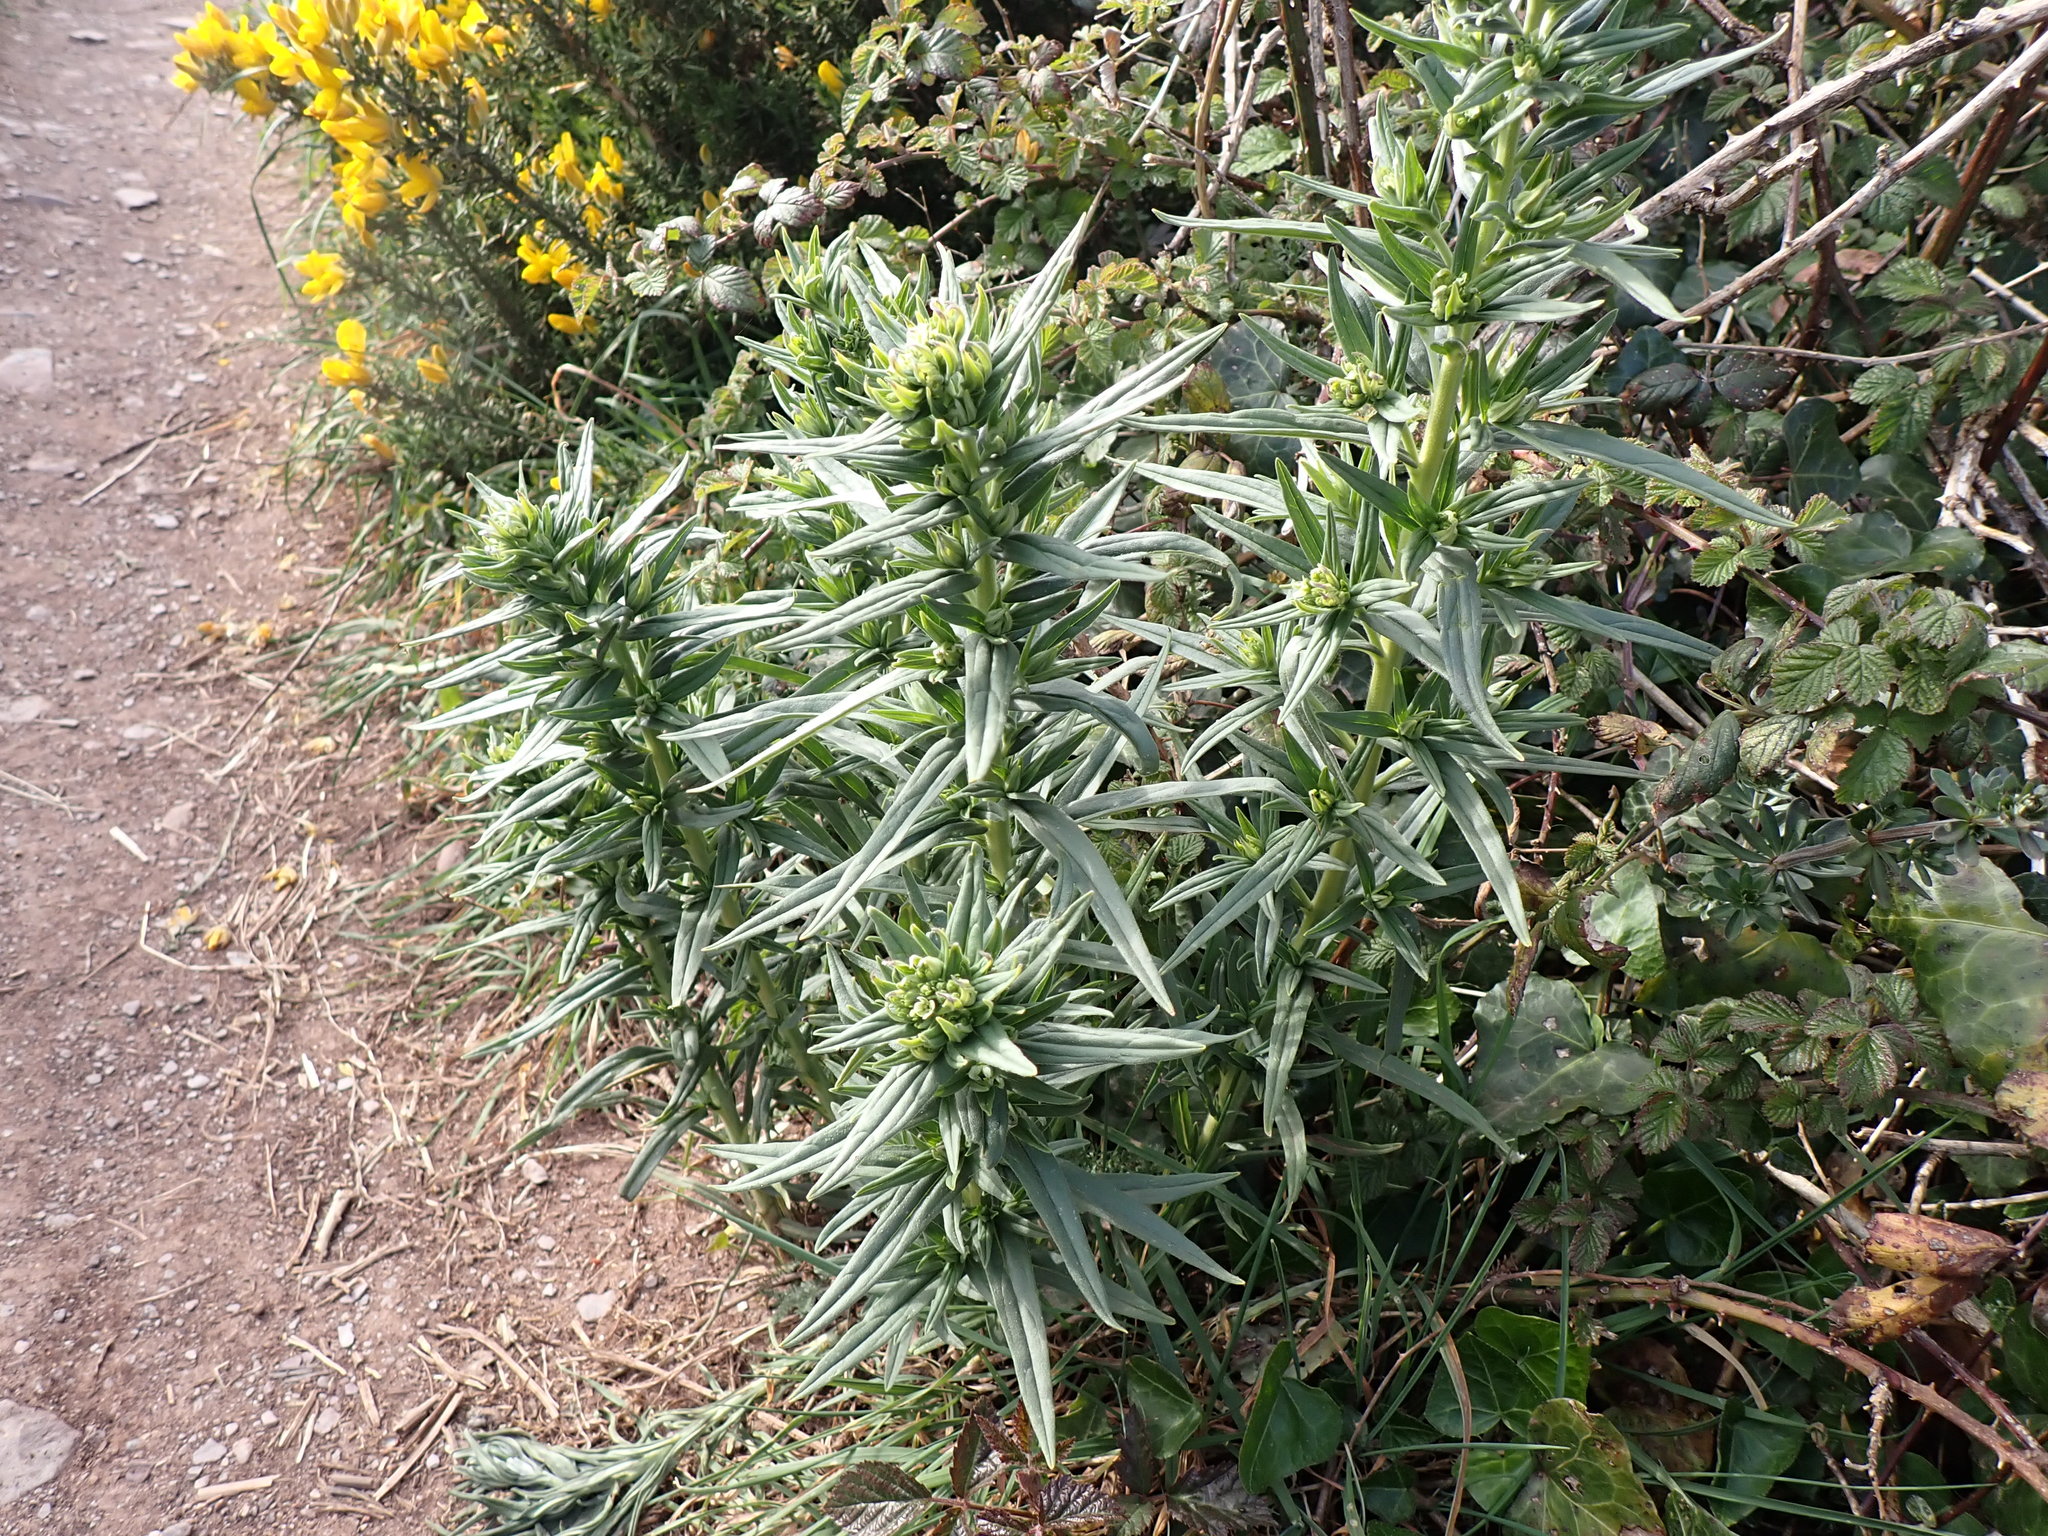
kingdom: Plantae
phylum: Tracheophyta
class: Magnoliopsida
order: Boraginales
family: Boraginaceae
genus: Lithospermum
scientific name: Lithospermum officinale
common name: Common gromwell
